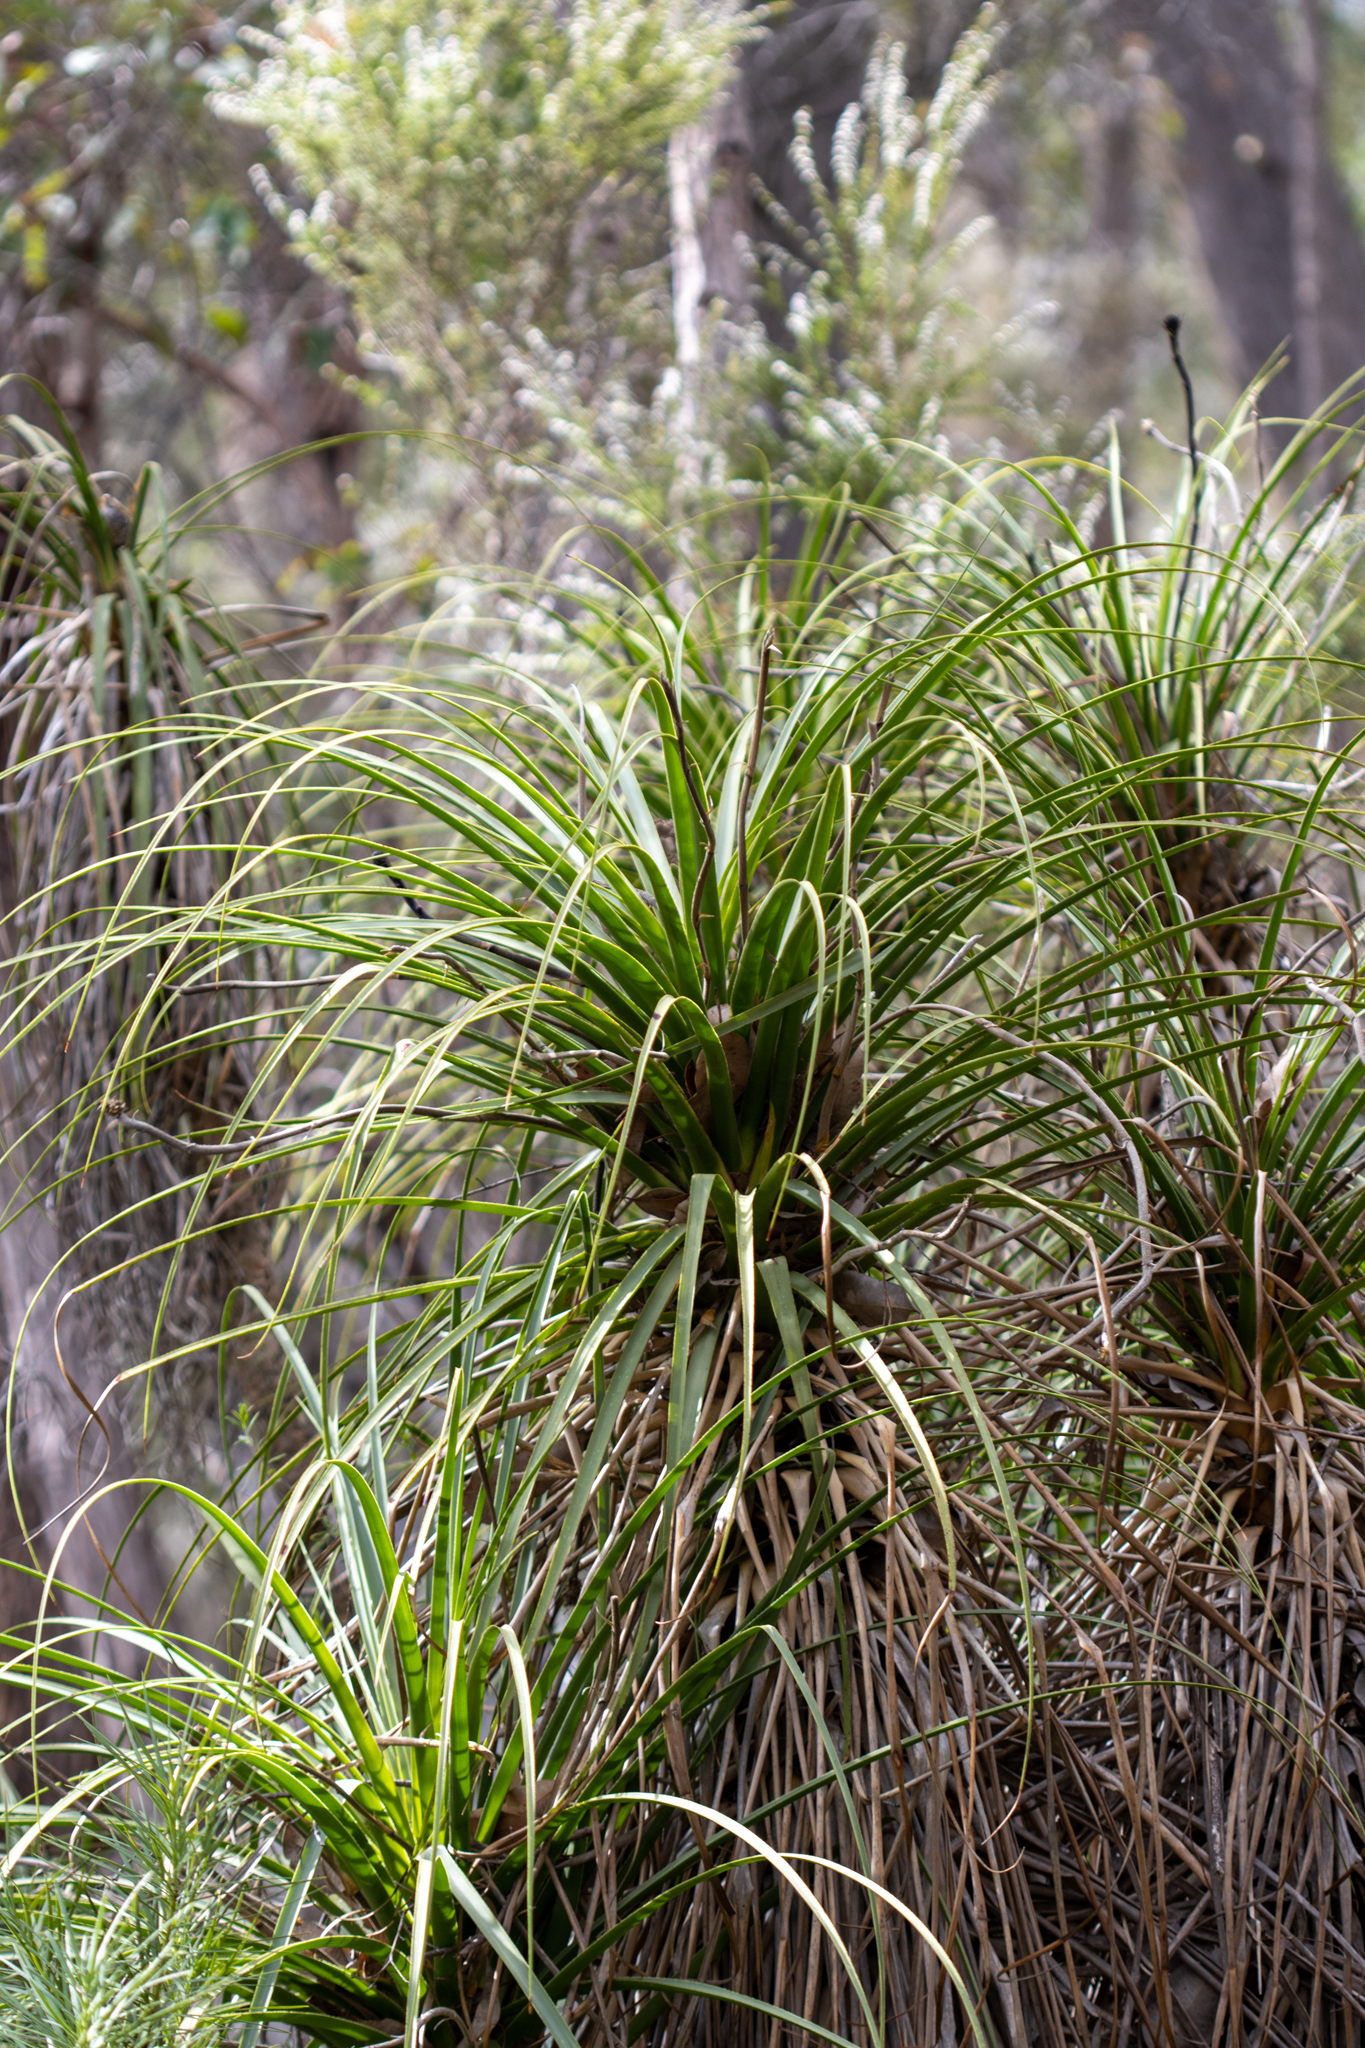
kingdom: Plantae
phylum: Tracheophyta
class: Liliopsida
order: Arecales
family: Dasypogonaceae
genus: Dasypogon
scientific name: Dasypogon hookeri
